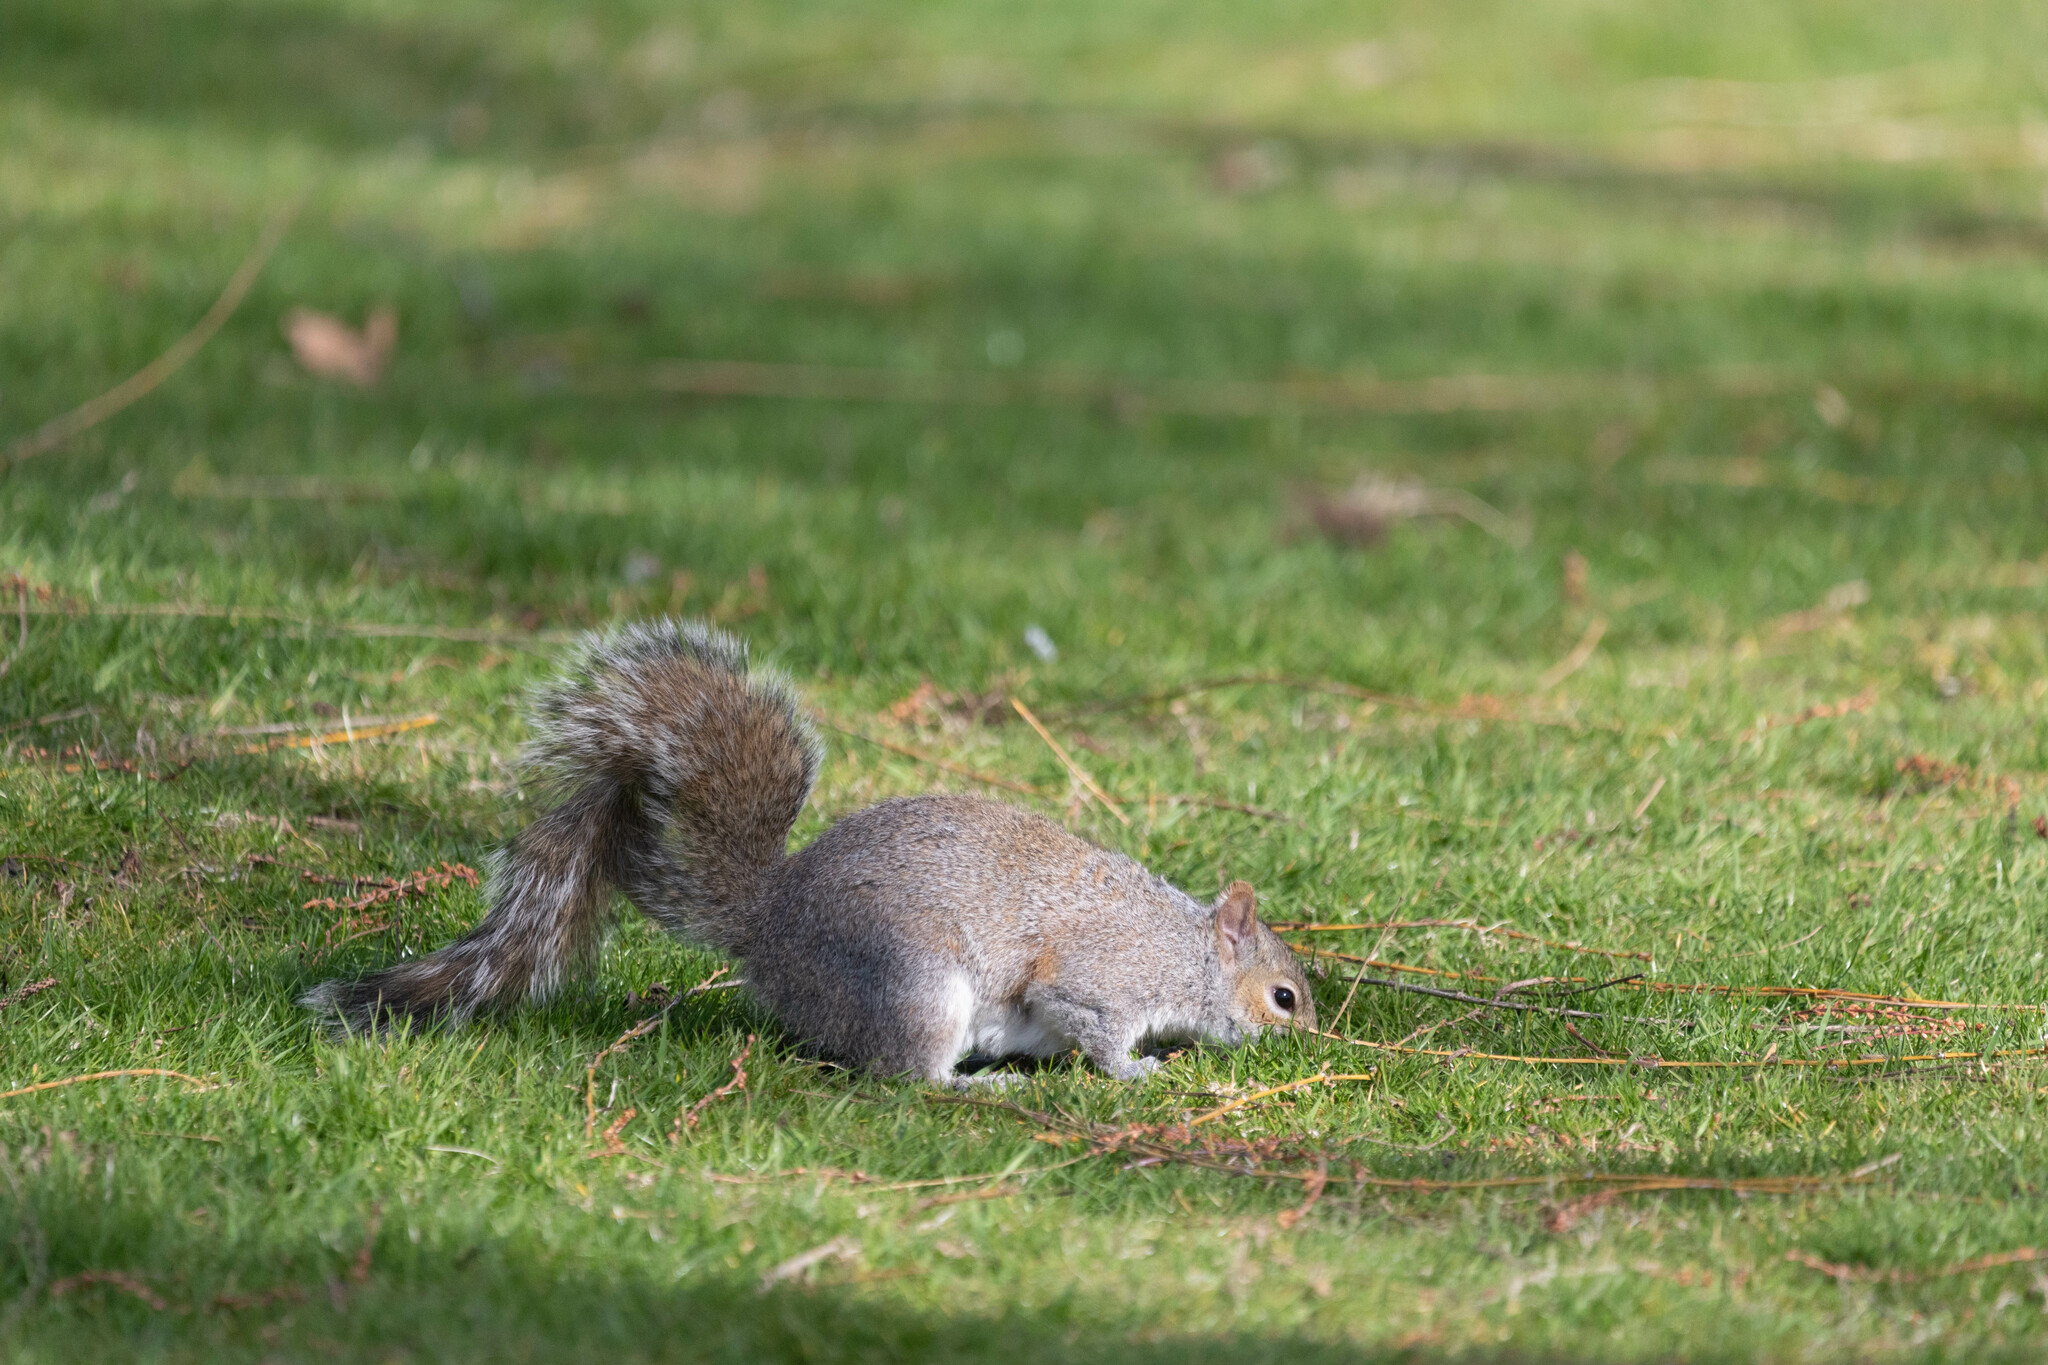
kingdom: Animalia
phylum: Chordata
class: Mammalia
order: Rodentia
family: Sciuridae
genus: Sciurus
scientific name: Sciurus carolinensis
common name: Eastern gray squirrel
